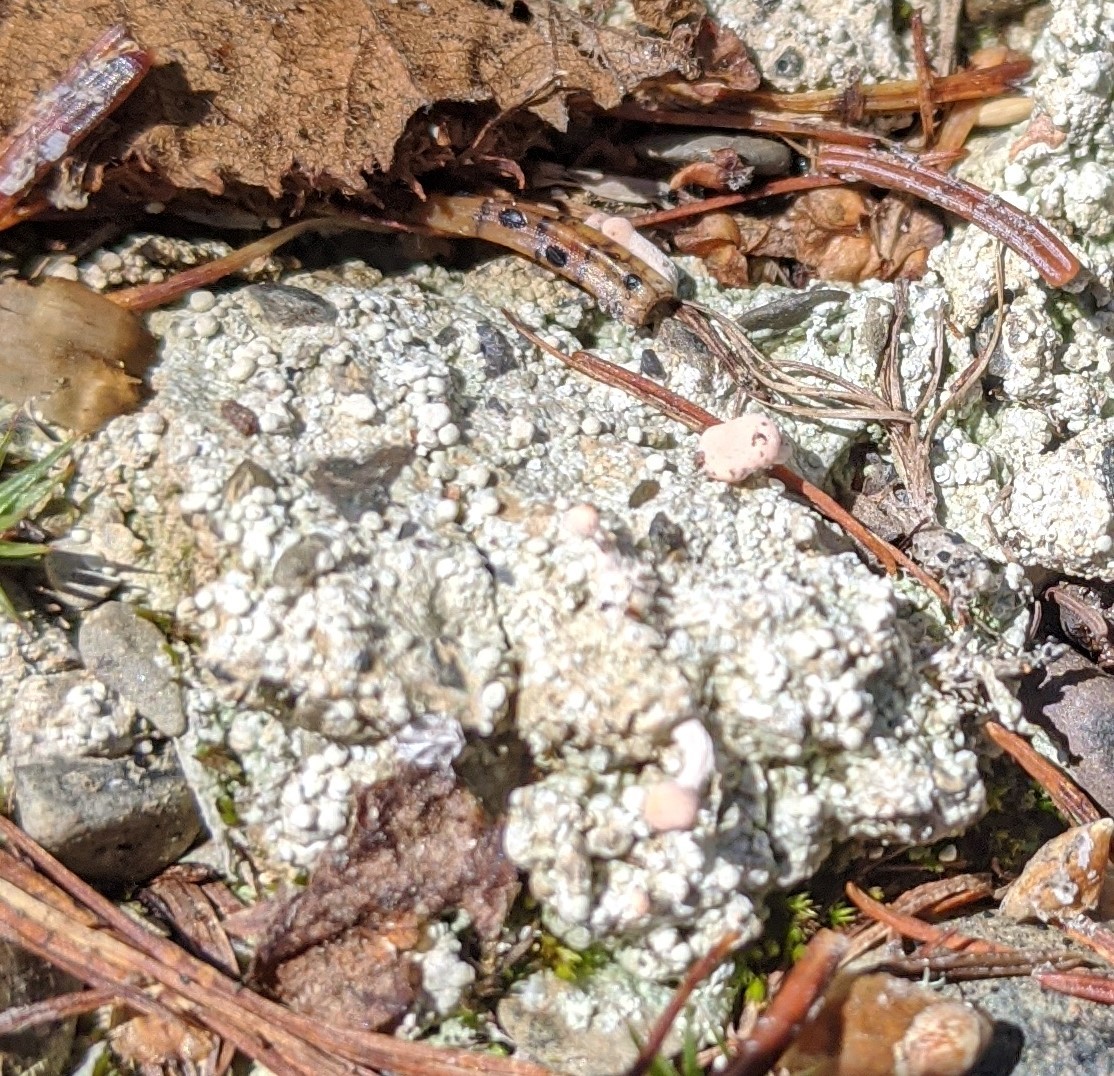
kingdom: Fungi
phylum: Ascomycota
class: Lecanoromycetes
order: Pertusariales
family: Icmadophilaceae
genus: Dibaeis
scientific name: Dibaeis baeomyces
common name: Pink earth lichen
